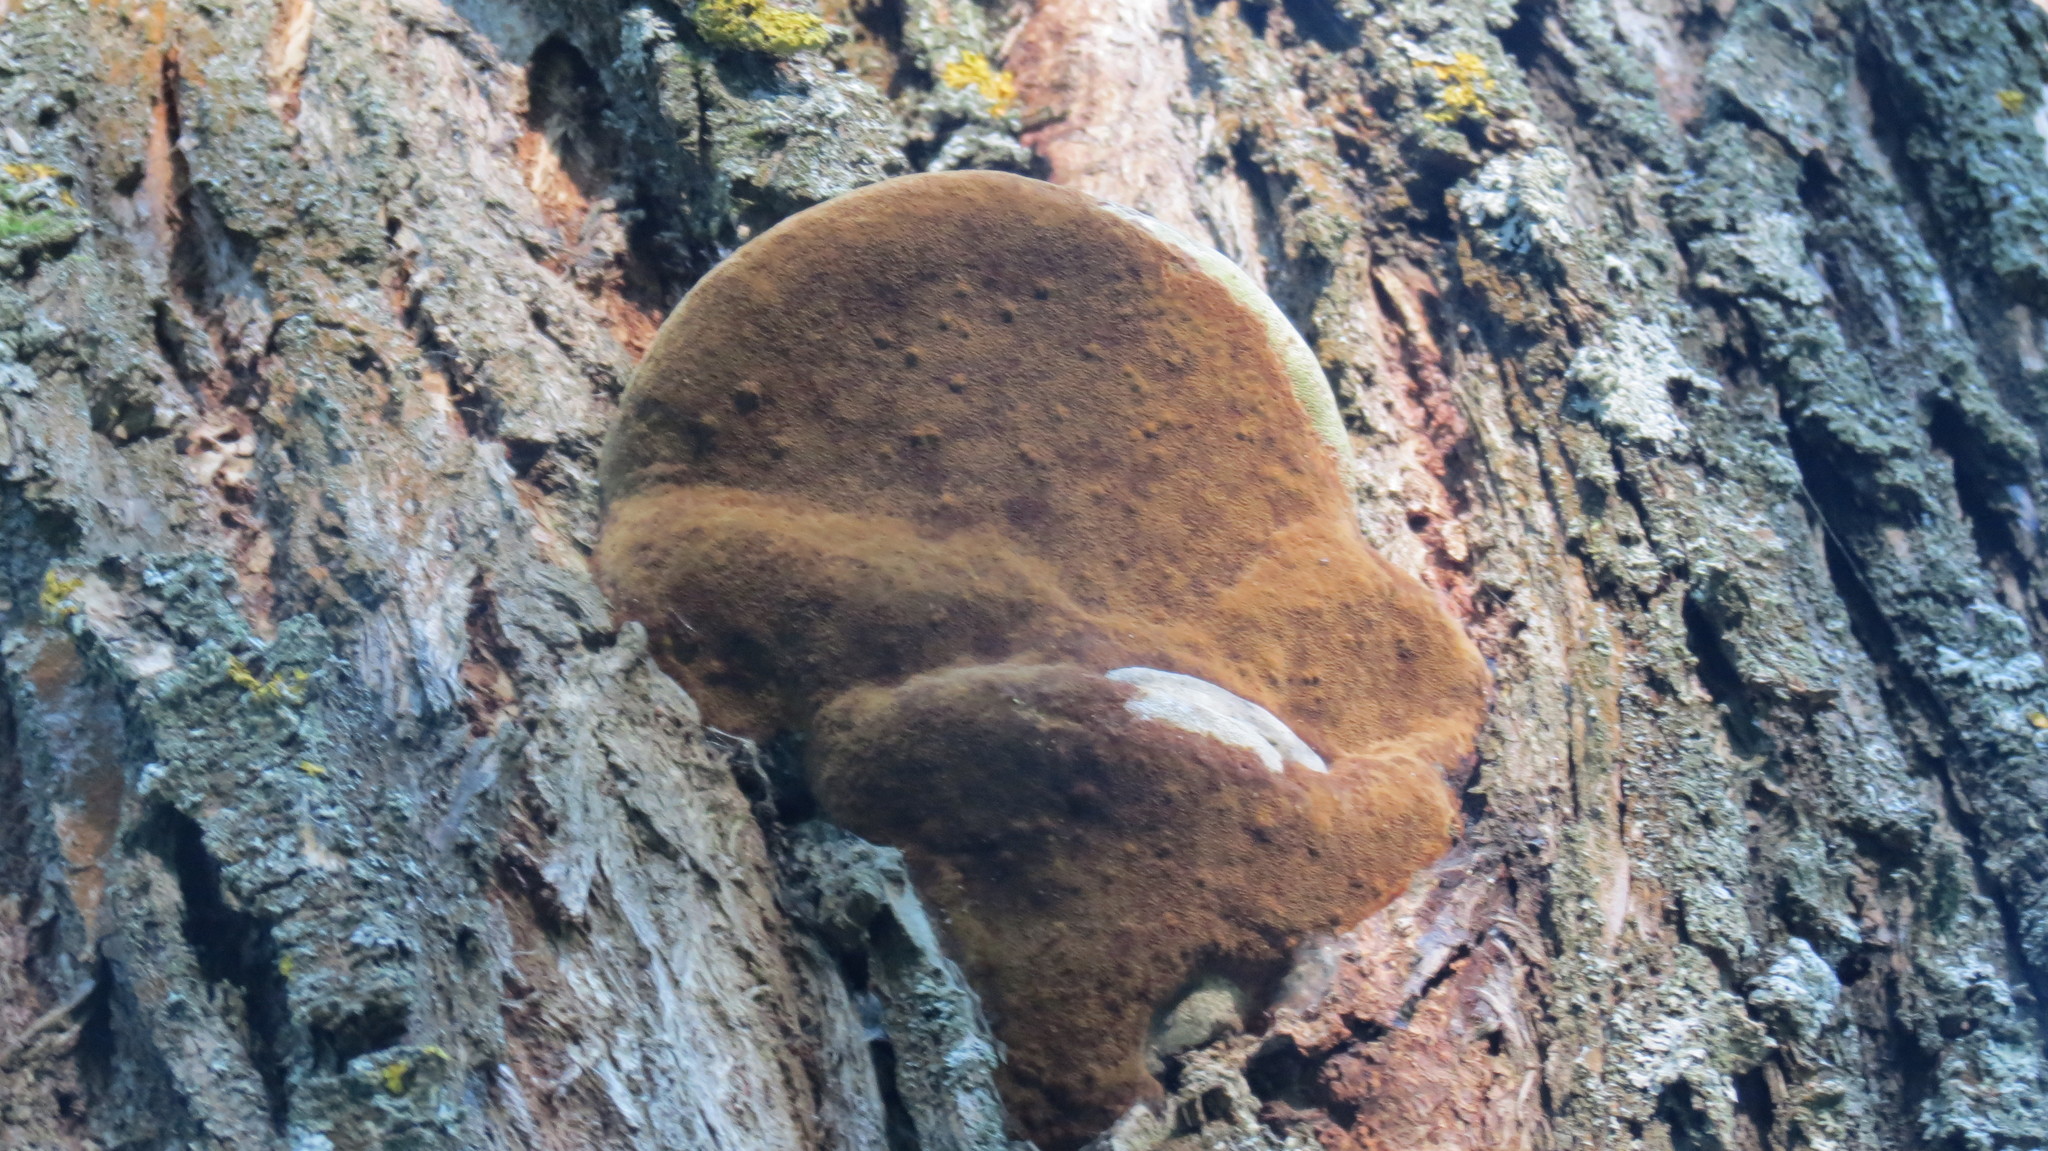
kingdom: Fungi
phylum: Basidiomycota
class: Agaricomycetes
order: Hymenochaetales
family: Hymenochaetaceae
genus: Fomitiporia
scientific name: Fomitiporia robusta
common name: Robust bracket
